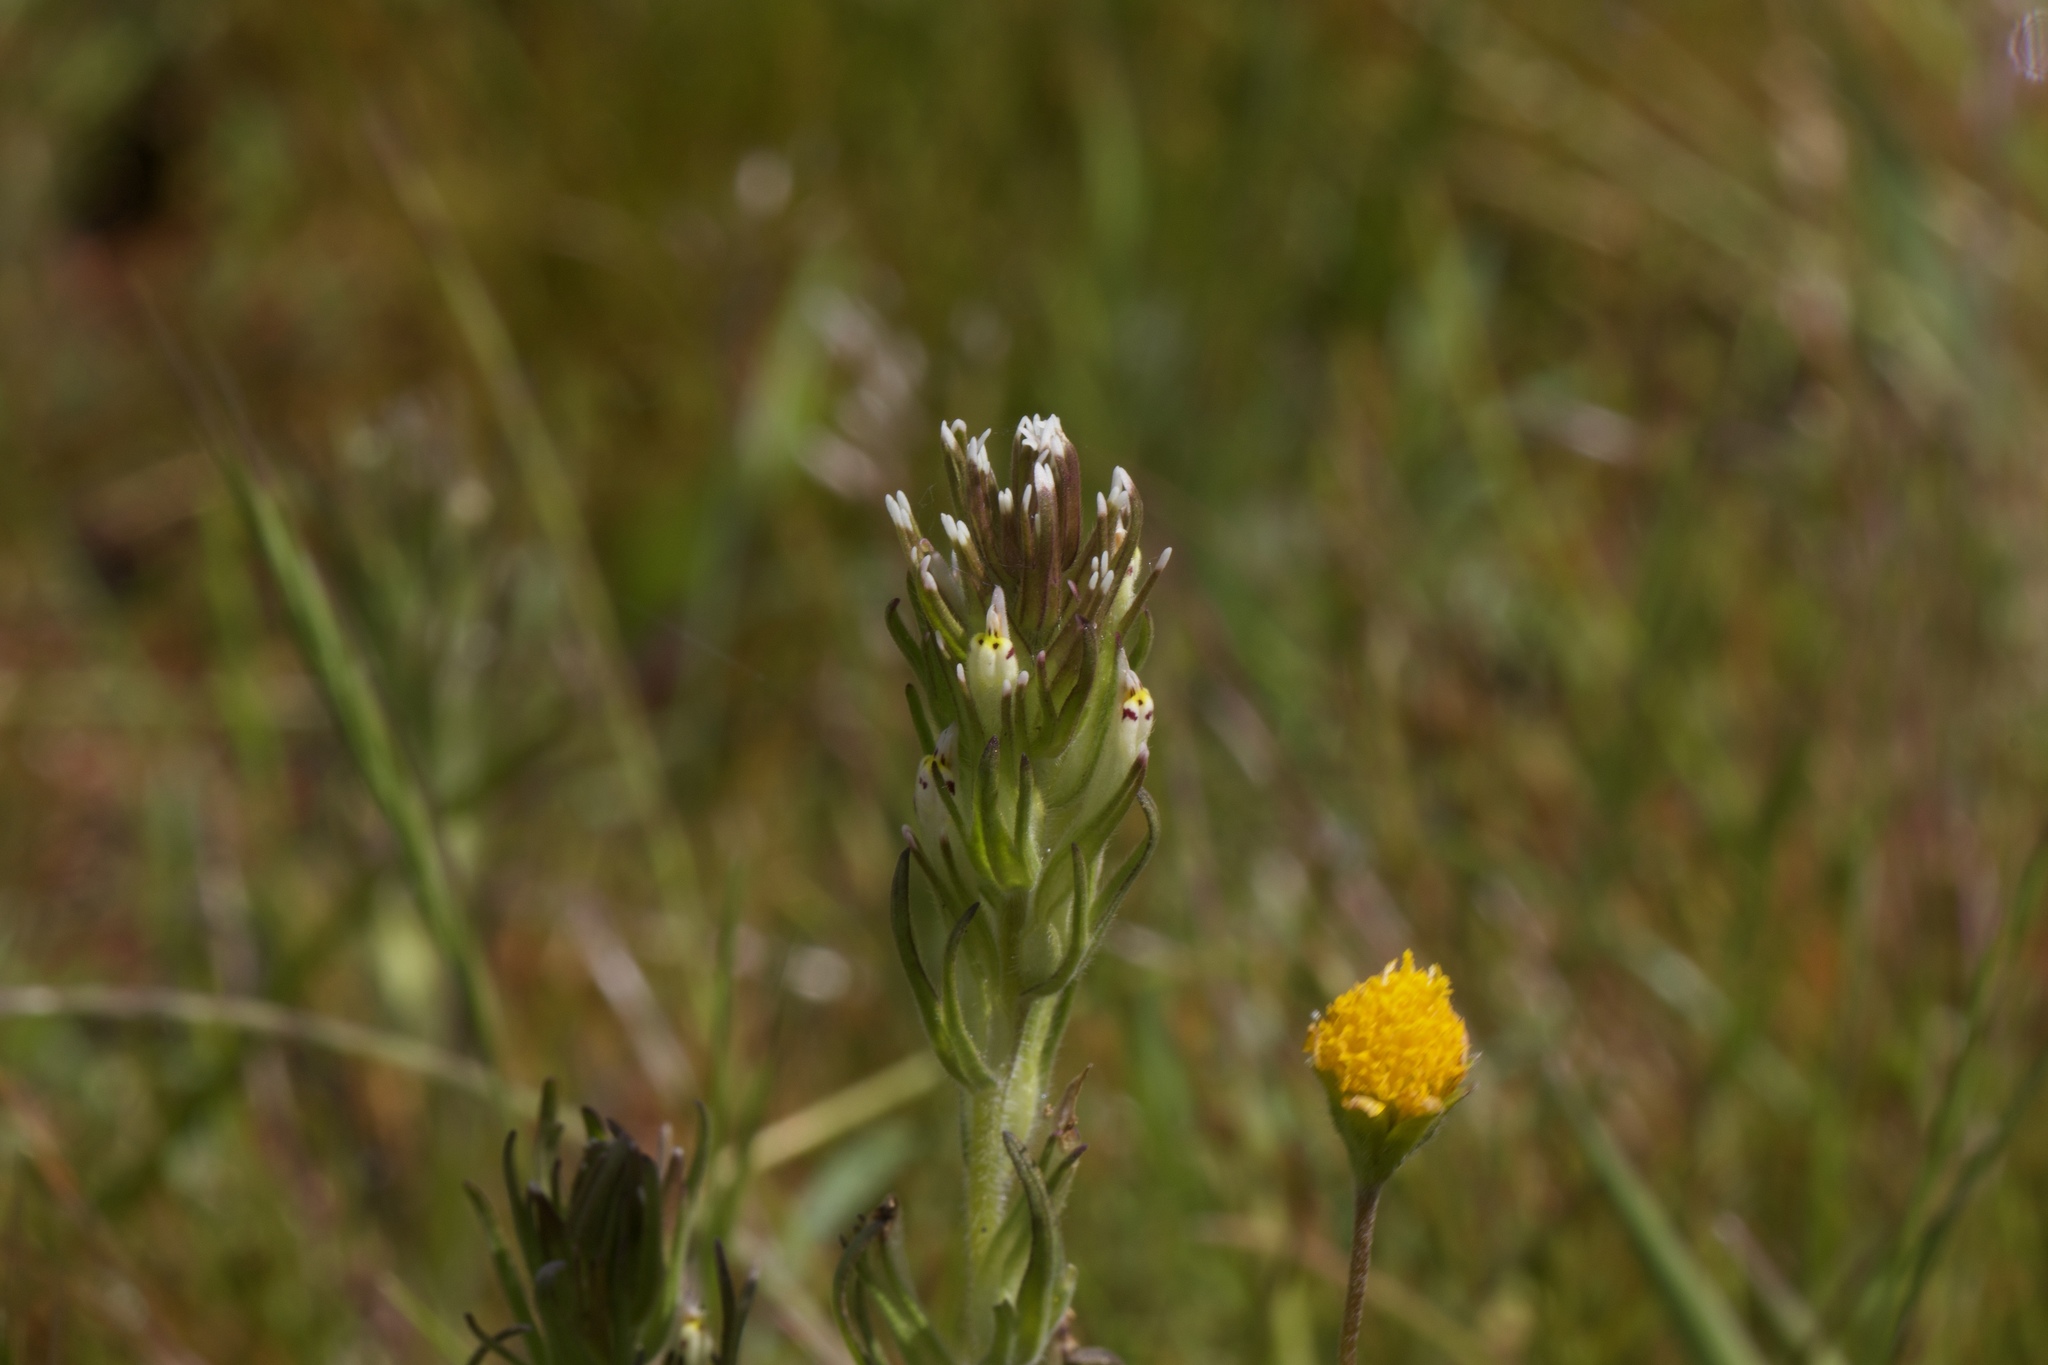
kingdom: Plantae
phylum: Tracheophyta
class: Magnoliopsida
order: Lamiales
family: Orobanchaceae
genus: Castilleja
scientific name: Castilleja attenuata
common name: Valley tassels
